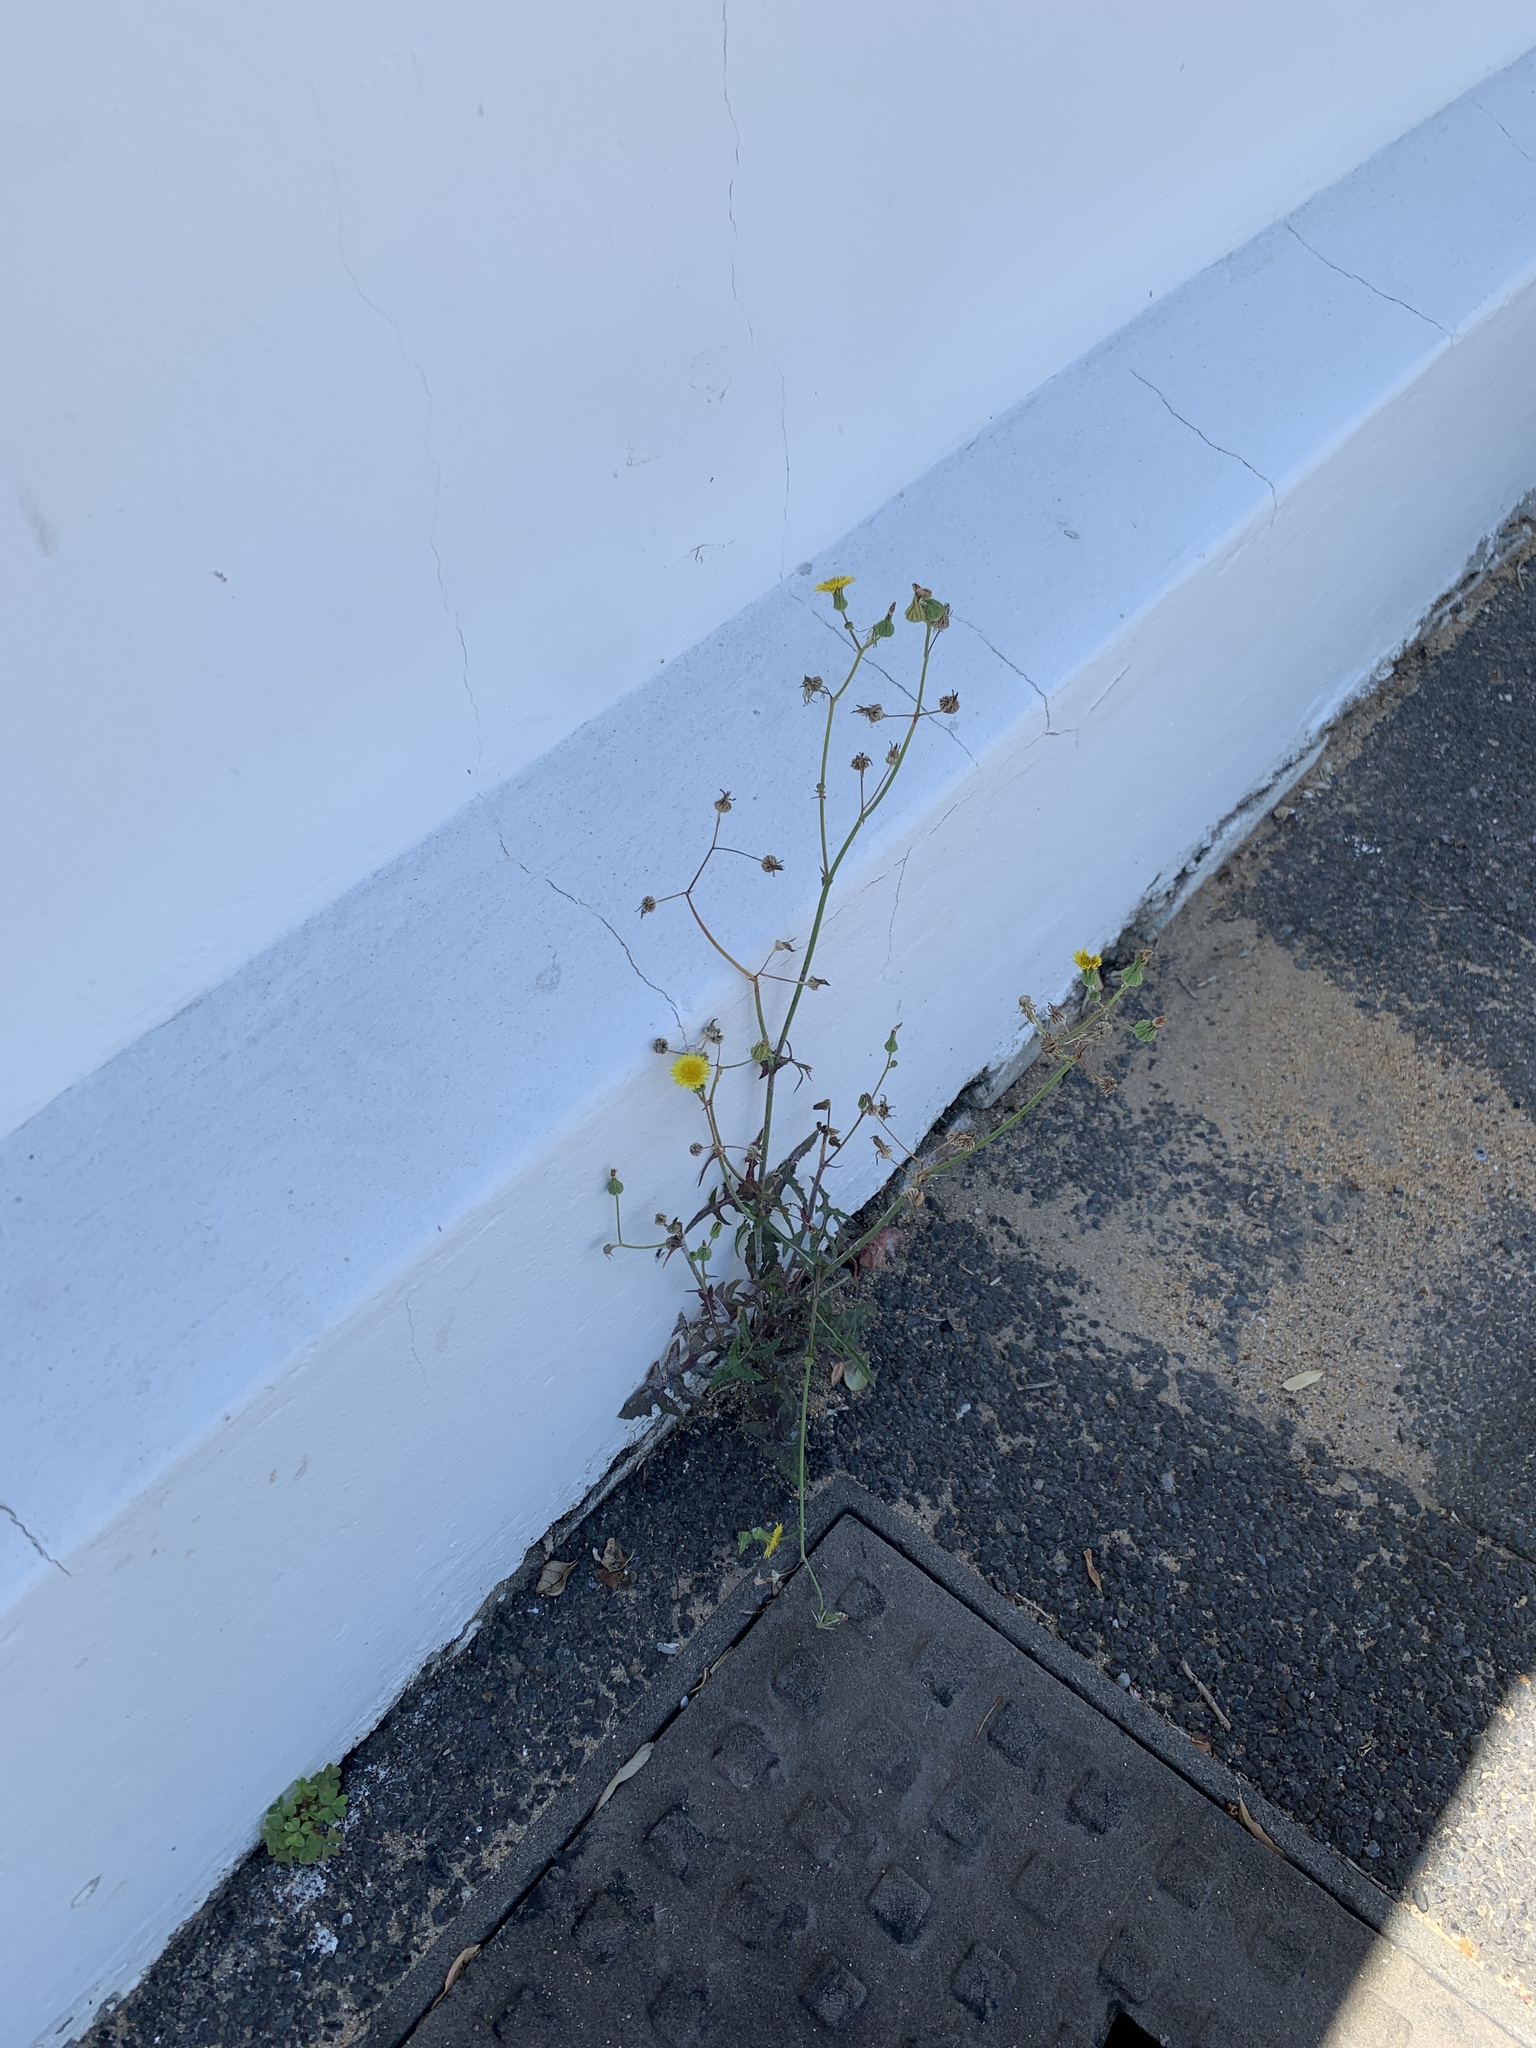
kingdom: Plantae
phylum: Tracheophyta
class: Magnoliopsida
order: Asterales
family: Asteraceae
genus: Sonchus
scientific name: Sonchus oleraceus
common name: Common sowthistle
